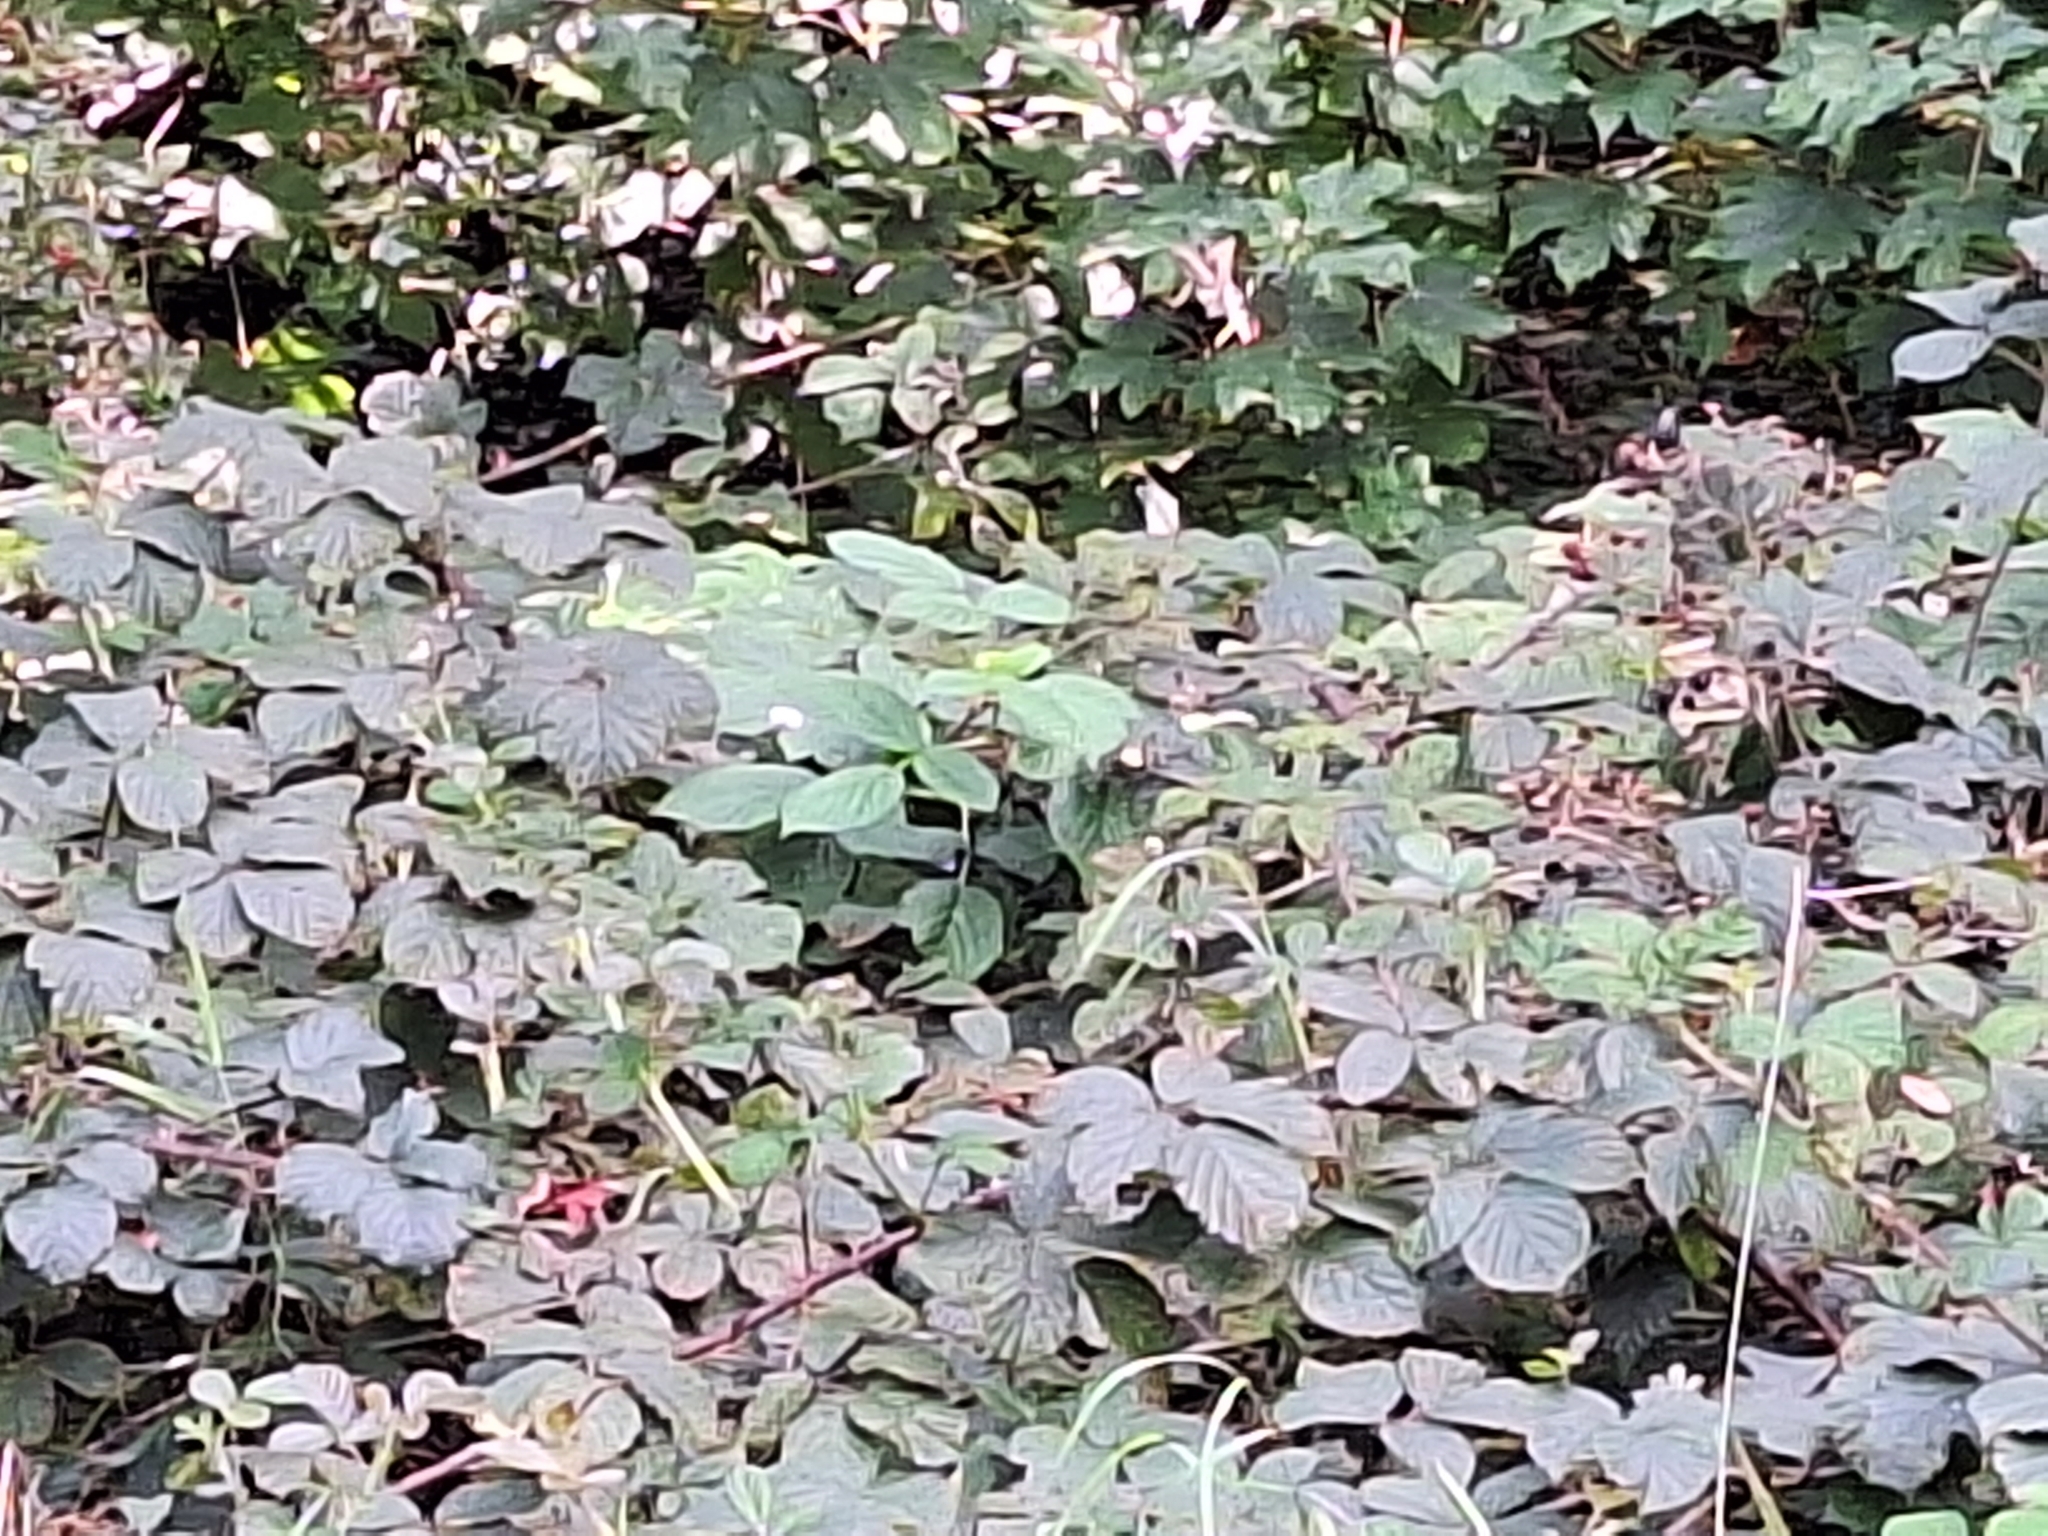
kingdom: Plantae
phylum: Tracheophyta
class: Magnoliopsida
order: Rosales
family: Rosaceae
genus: Rubus
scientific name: Rubus fruticosus
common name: Blackberry, bramble
